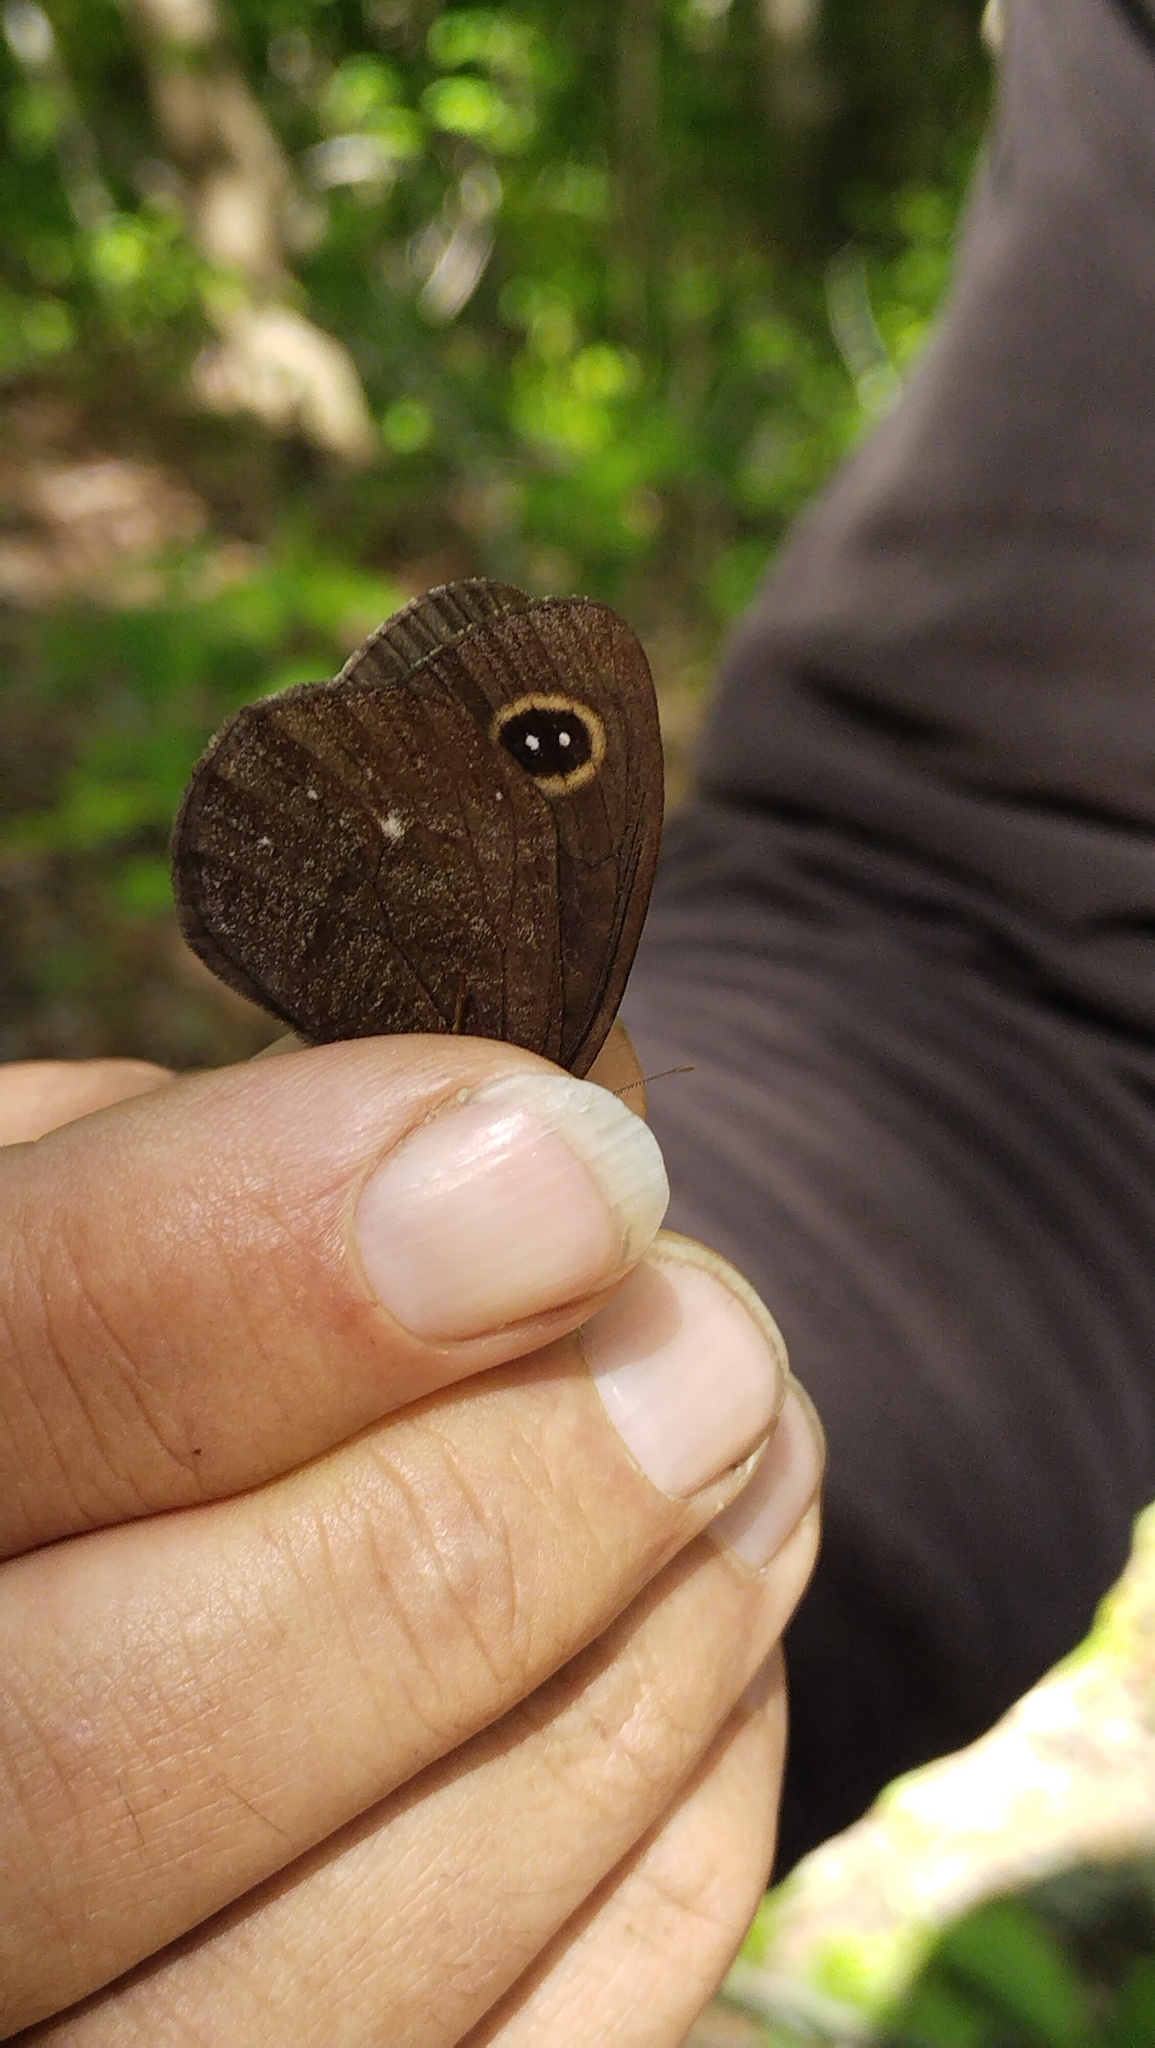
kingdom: Animalia
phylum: Arthropoda
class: Insecta
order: Lepidoptera
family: Nymphalidae
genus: Erebia
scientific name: Erebia tristis
